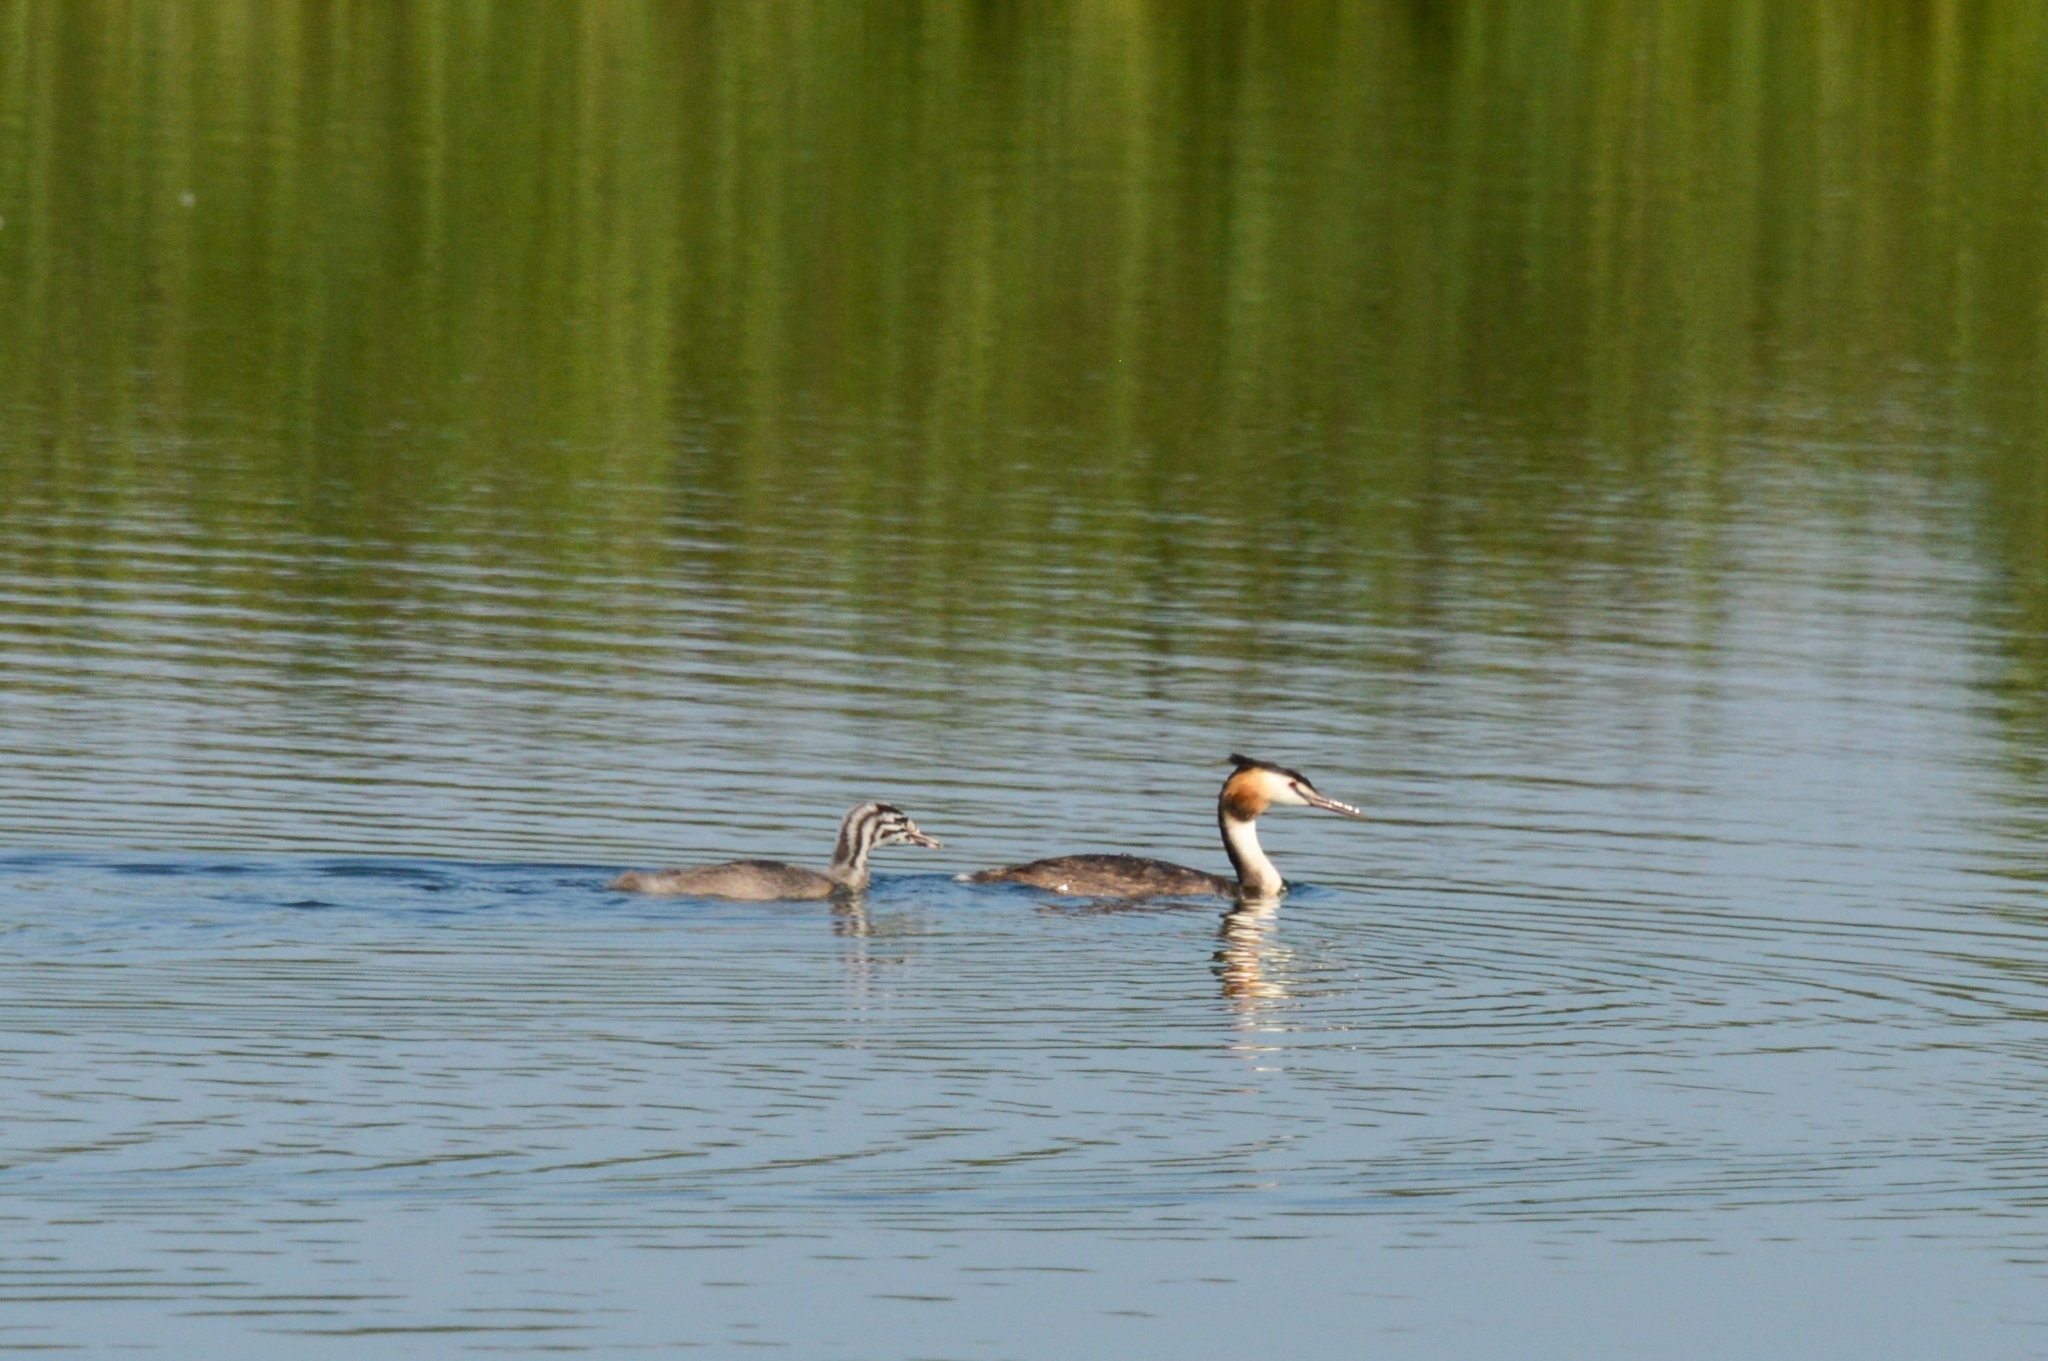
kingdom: Animalia
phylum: Chordata
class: Aves
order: Podicipediformes
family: Podicipedidae
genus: Podiceps
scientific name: Podiceps cristatus
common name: Great crested grebe
